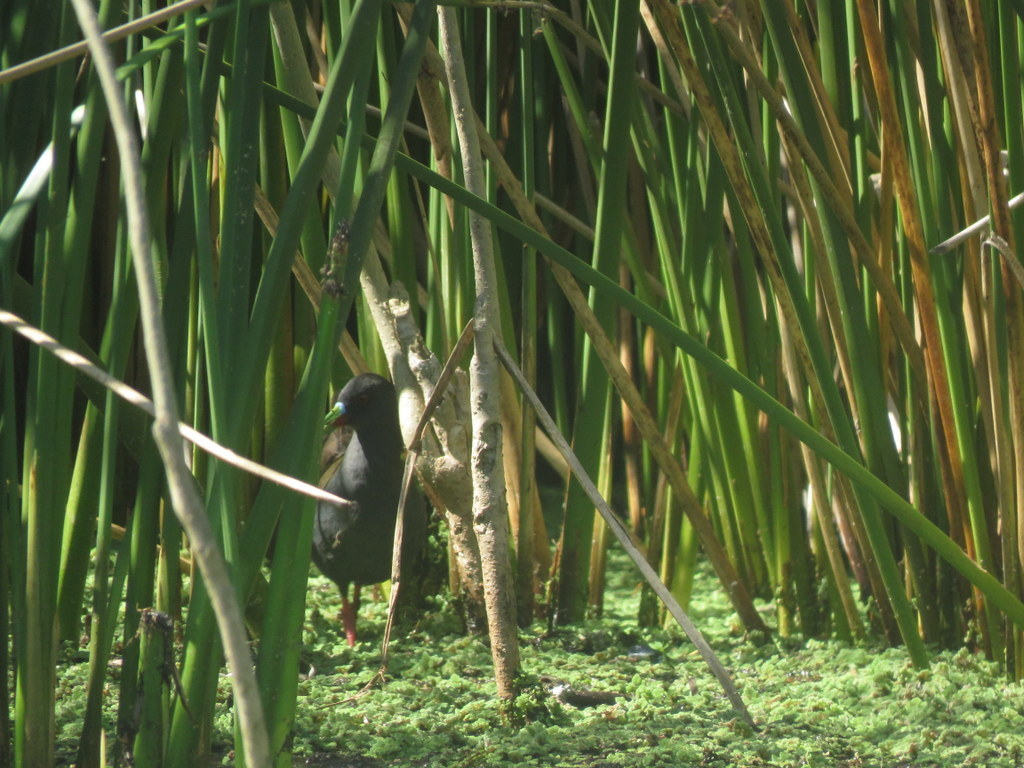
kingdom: Animalia
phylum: Chordata
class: Aves
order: Gruiformes
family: Rallidae
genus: Pardirallus
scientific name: Pardirallus sanguinolentus
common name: Plumbeous rail
